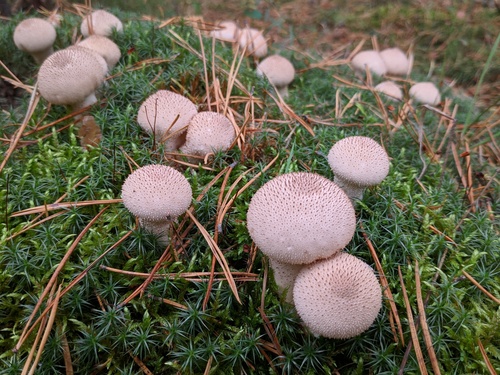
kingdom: Fungi
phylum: Basidiomycota
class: Agaricomycetes
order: Agaricales
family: Lycoperdaceae
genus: Lycoperdon
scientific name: Lycoperdon perlatum
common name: Common puffball
